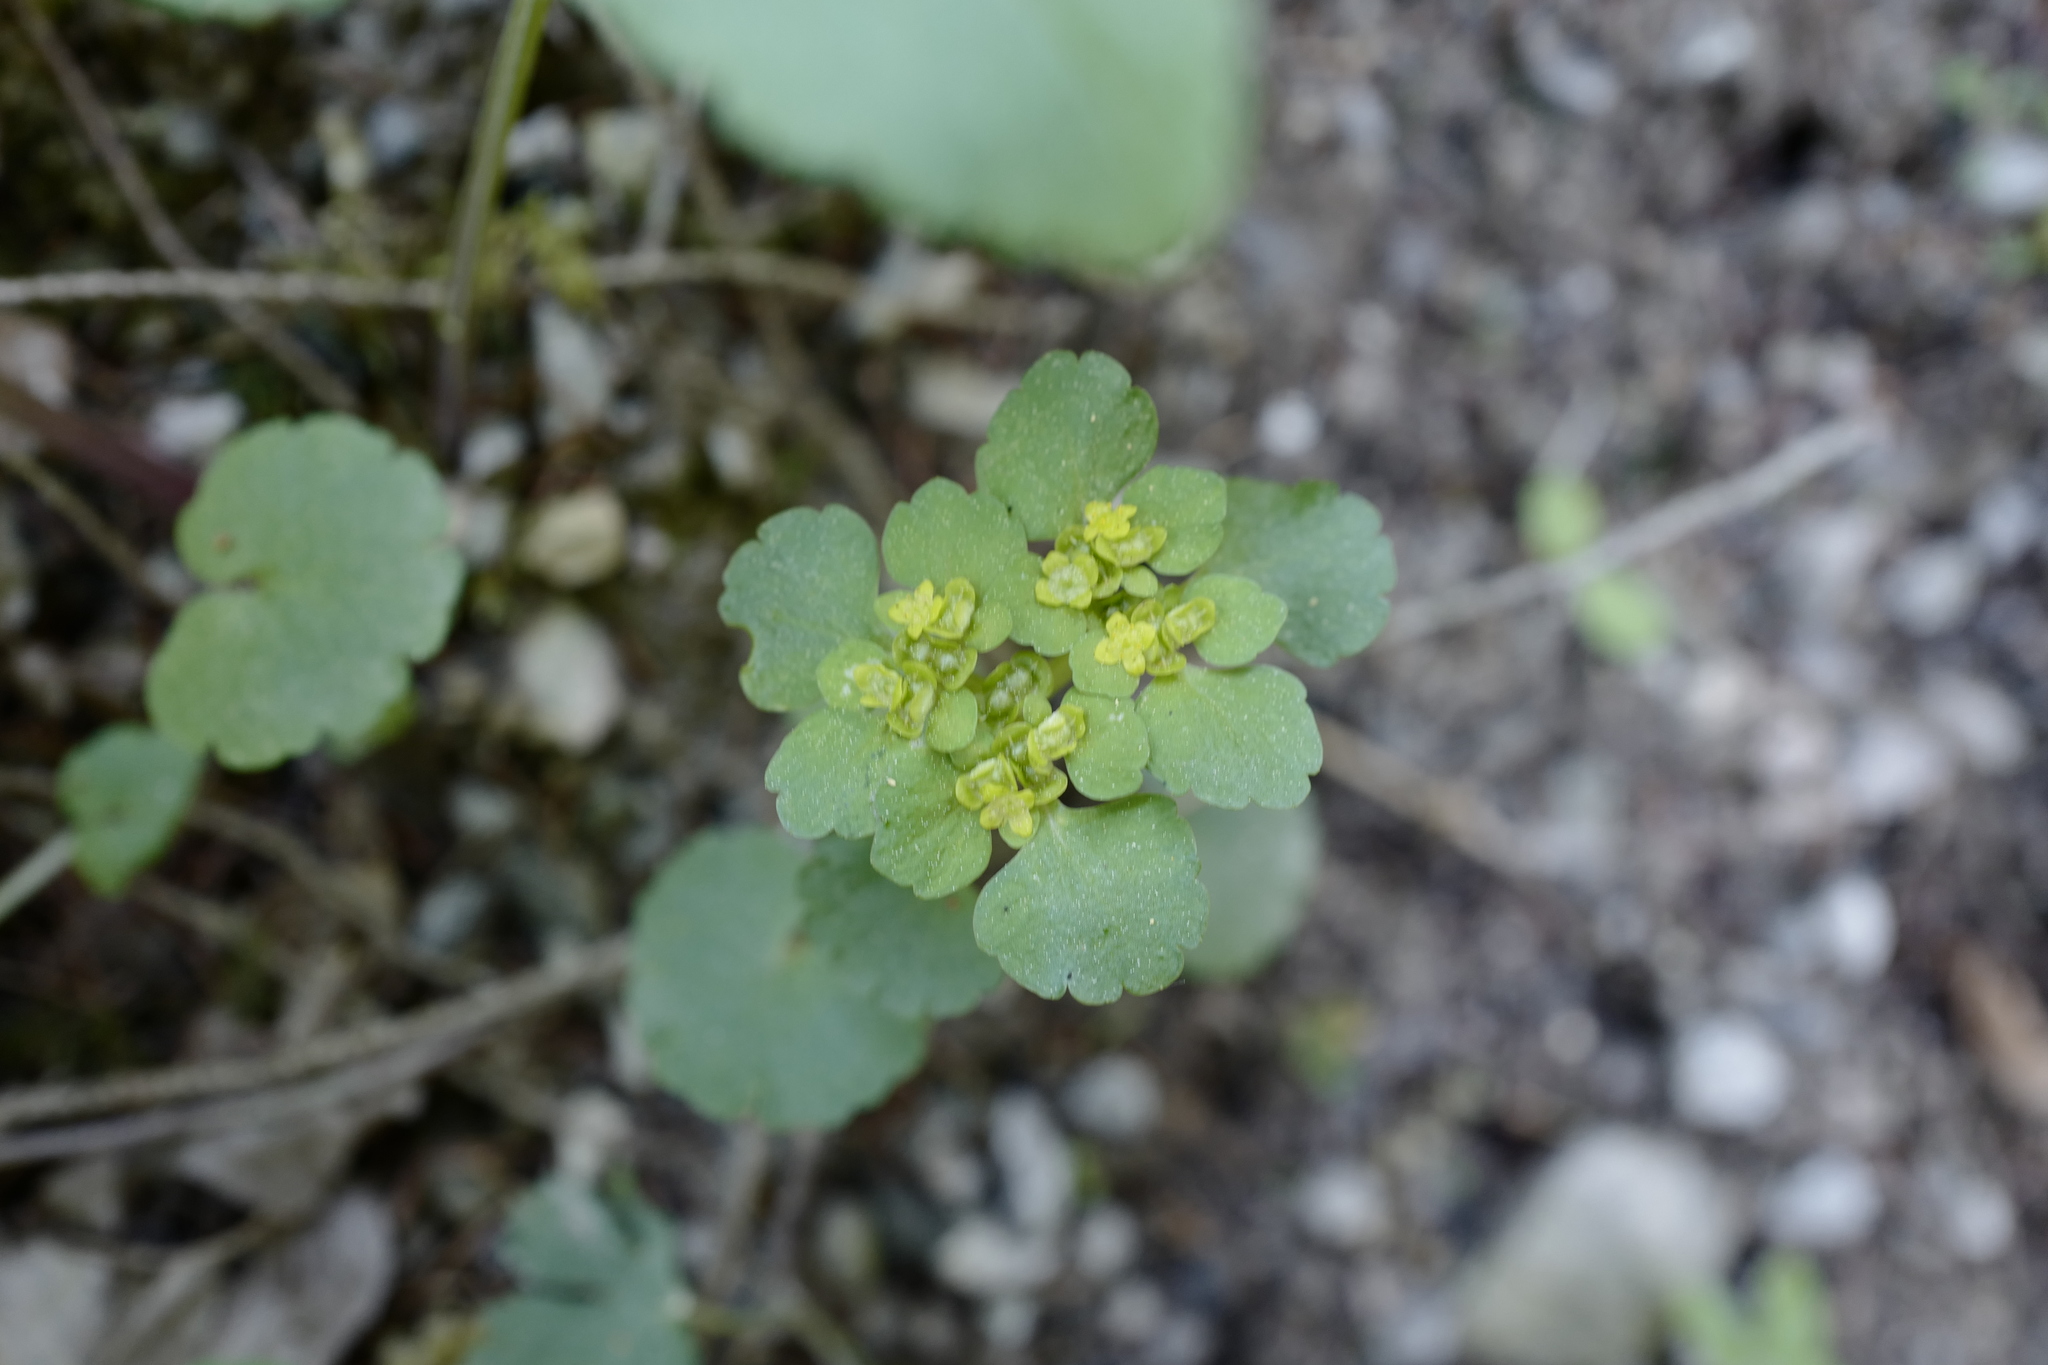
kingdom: Plantae
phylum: Tracheophyta
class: Magnoliopsida
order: Saxifragales
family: Saxifragaceae
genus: Chrysosplenium
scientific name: Chrysosplenium alternifolium
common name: Alternate-leaved golden-saxifrage
